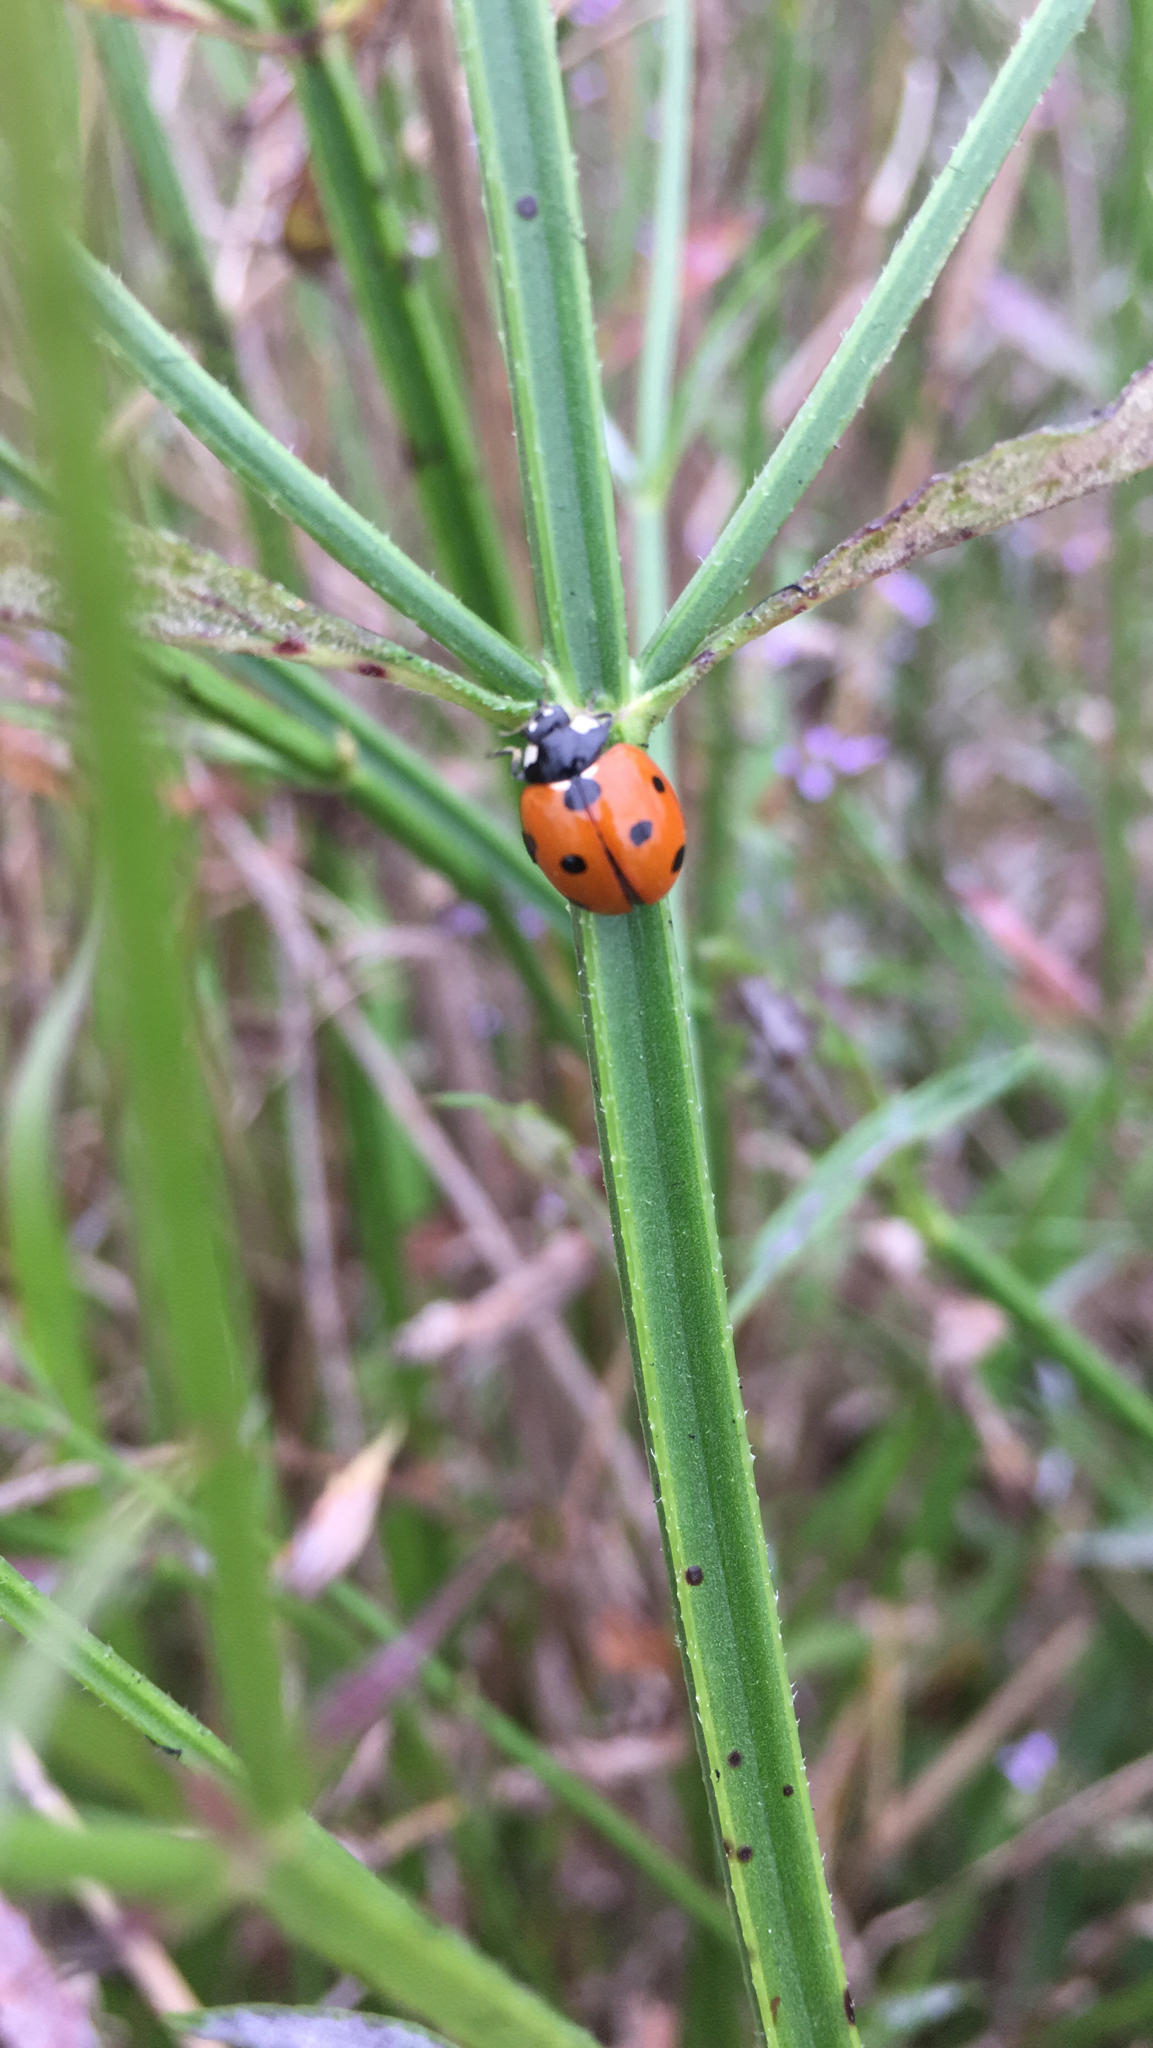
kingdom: Animalia
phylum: Arthropoda
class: Insecta
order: Coleoptera
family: Coccinellidae
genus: Coccinella
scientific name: Coccinella septempunctata
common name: Sevenspotted lady beetle
